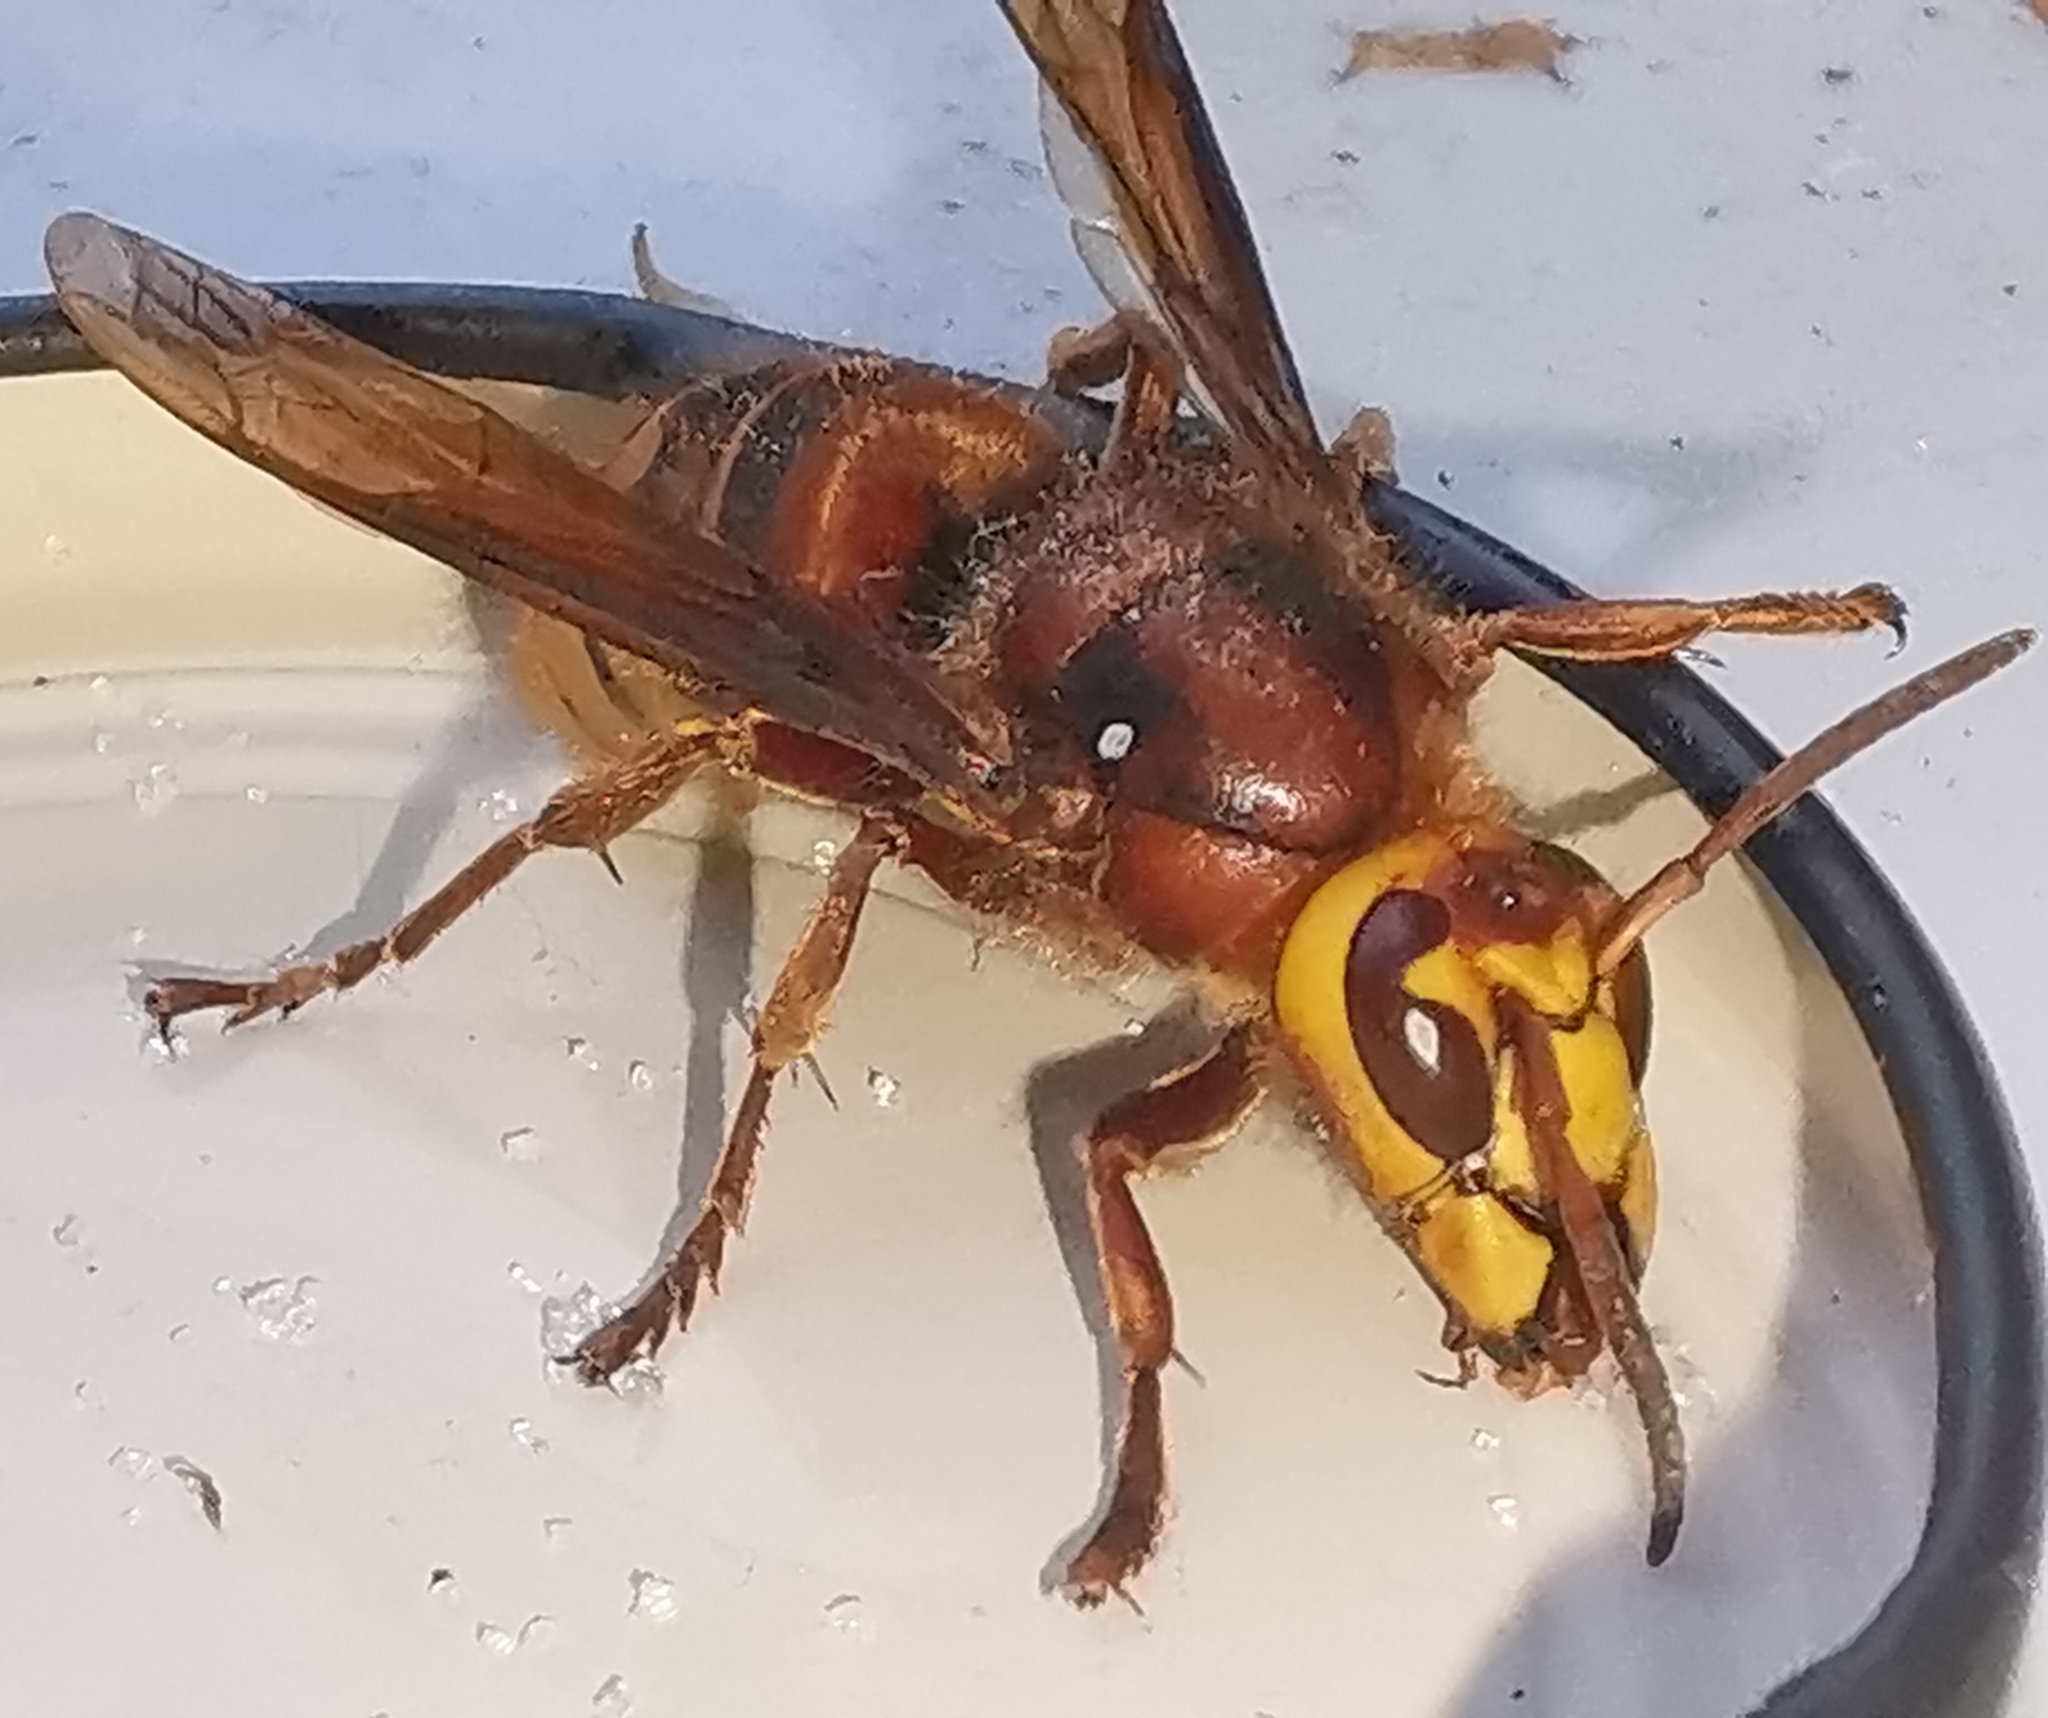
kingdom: Animalia
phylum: Arthropoda
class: Insecta
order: Hymenoptera
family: Vespidae
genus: Vespa
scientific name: Vespa crabro
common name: Hornet
